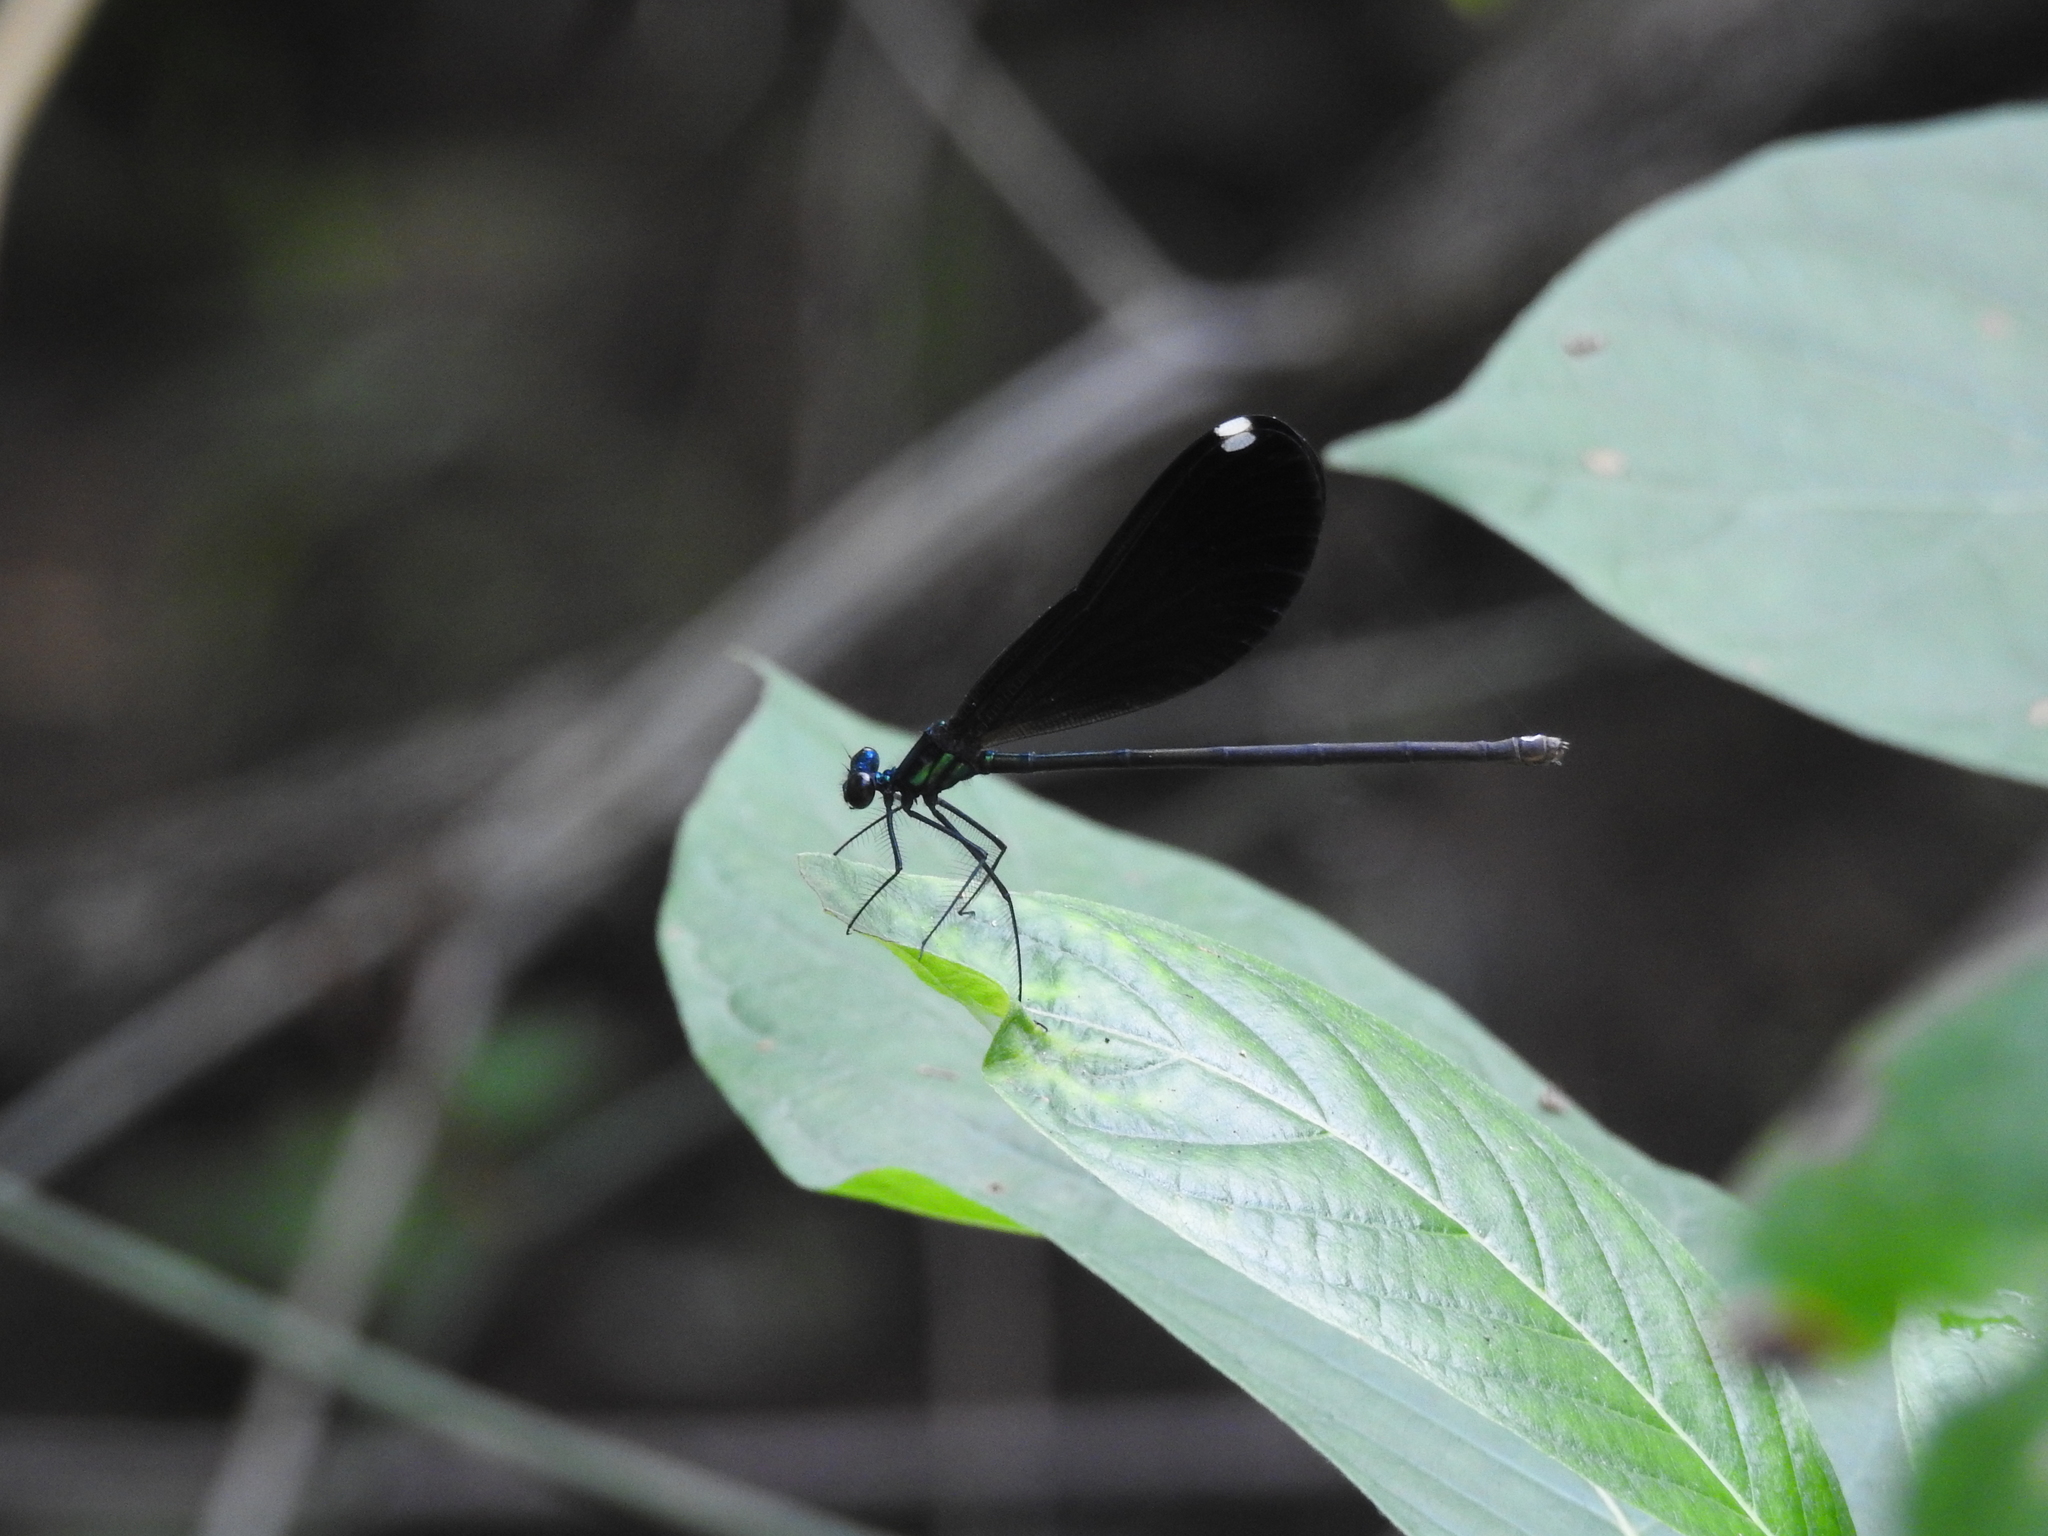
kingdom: Animalia
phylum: Arthropoda
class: Insecta
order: Odonata
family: Calopterygidae
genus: Calopteryx
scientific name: Calopteryx maculata
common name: Ebony jewelwing
